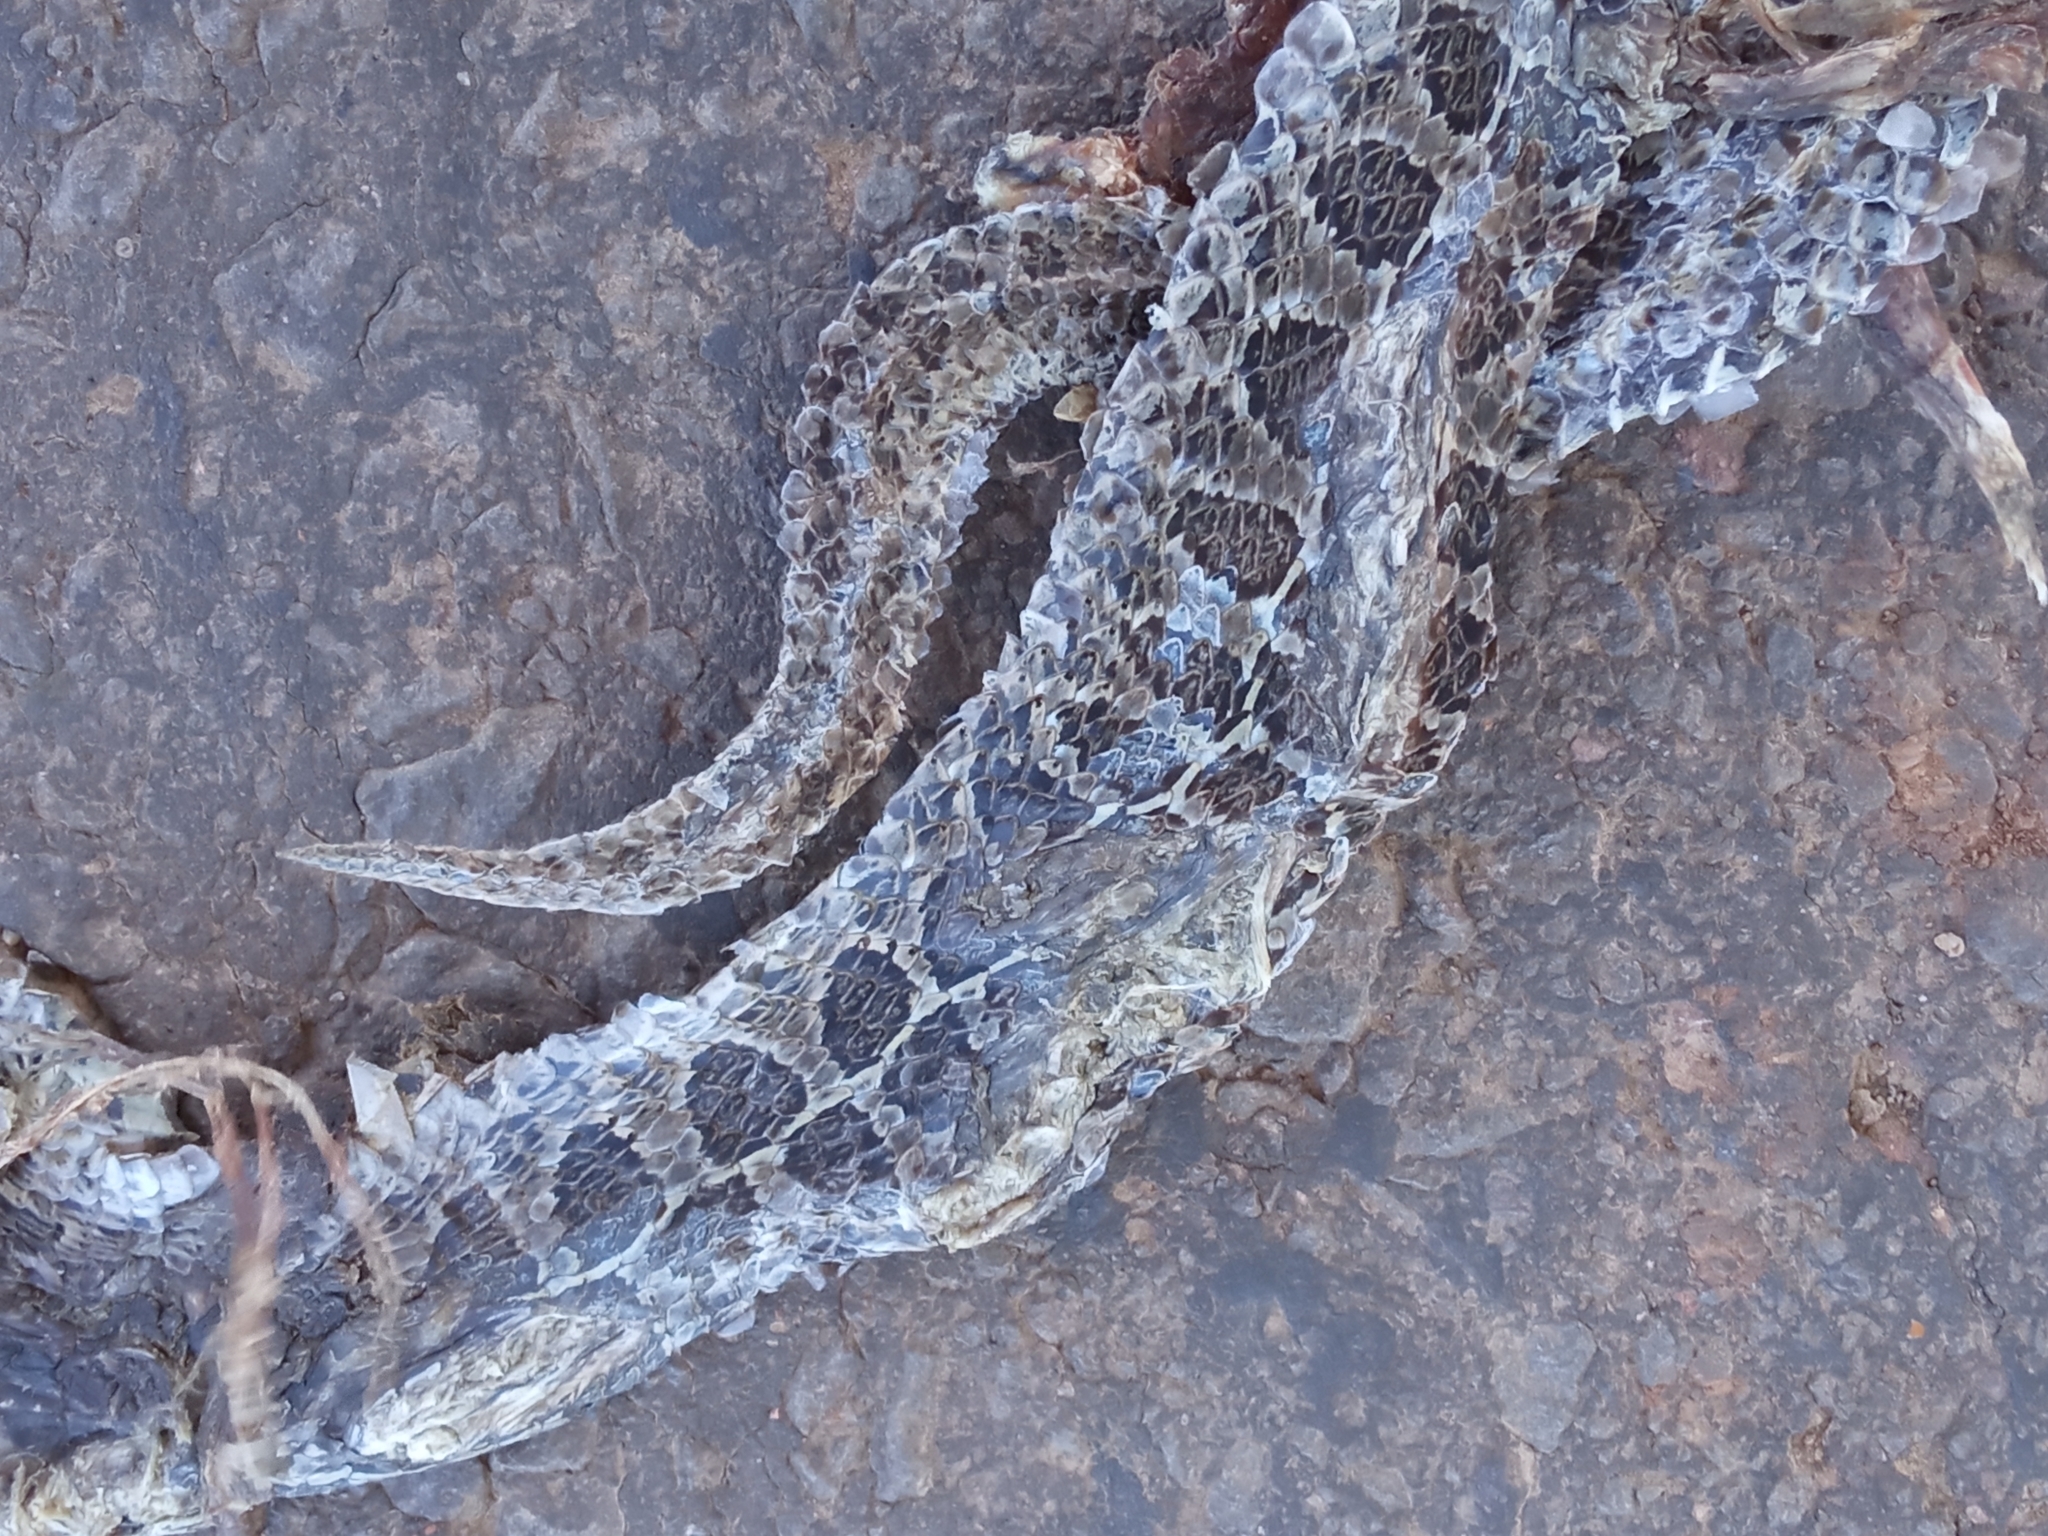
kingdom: Animalia
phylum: Chordata
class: Squamata
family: Colubridae
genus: Tachymenis
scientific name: Tachymenis
